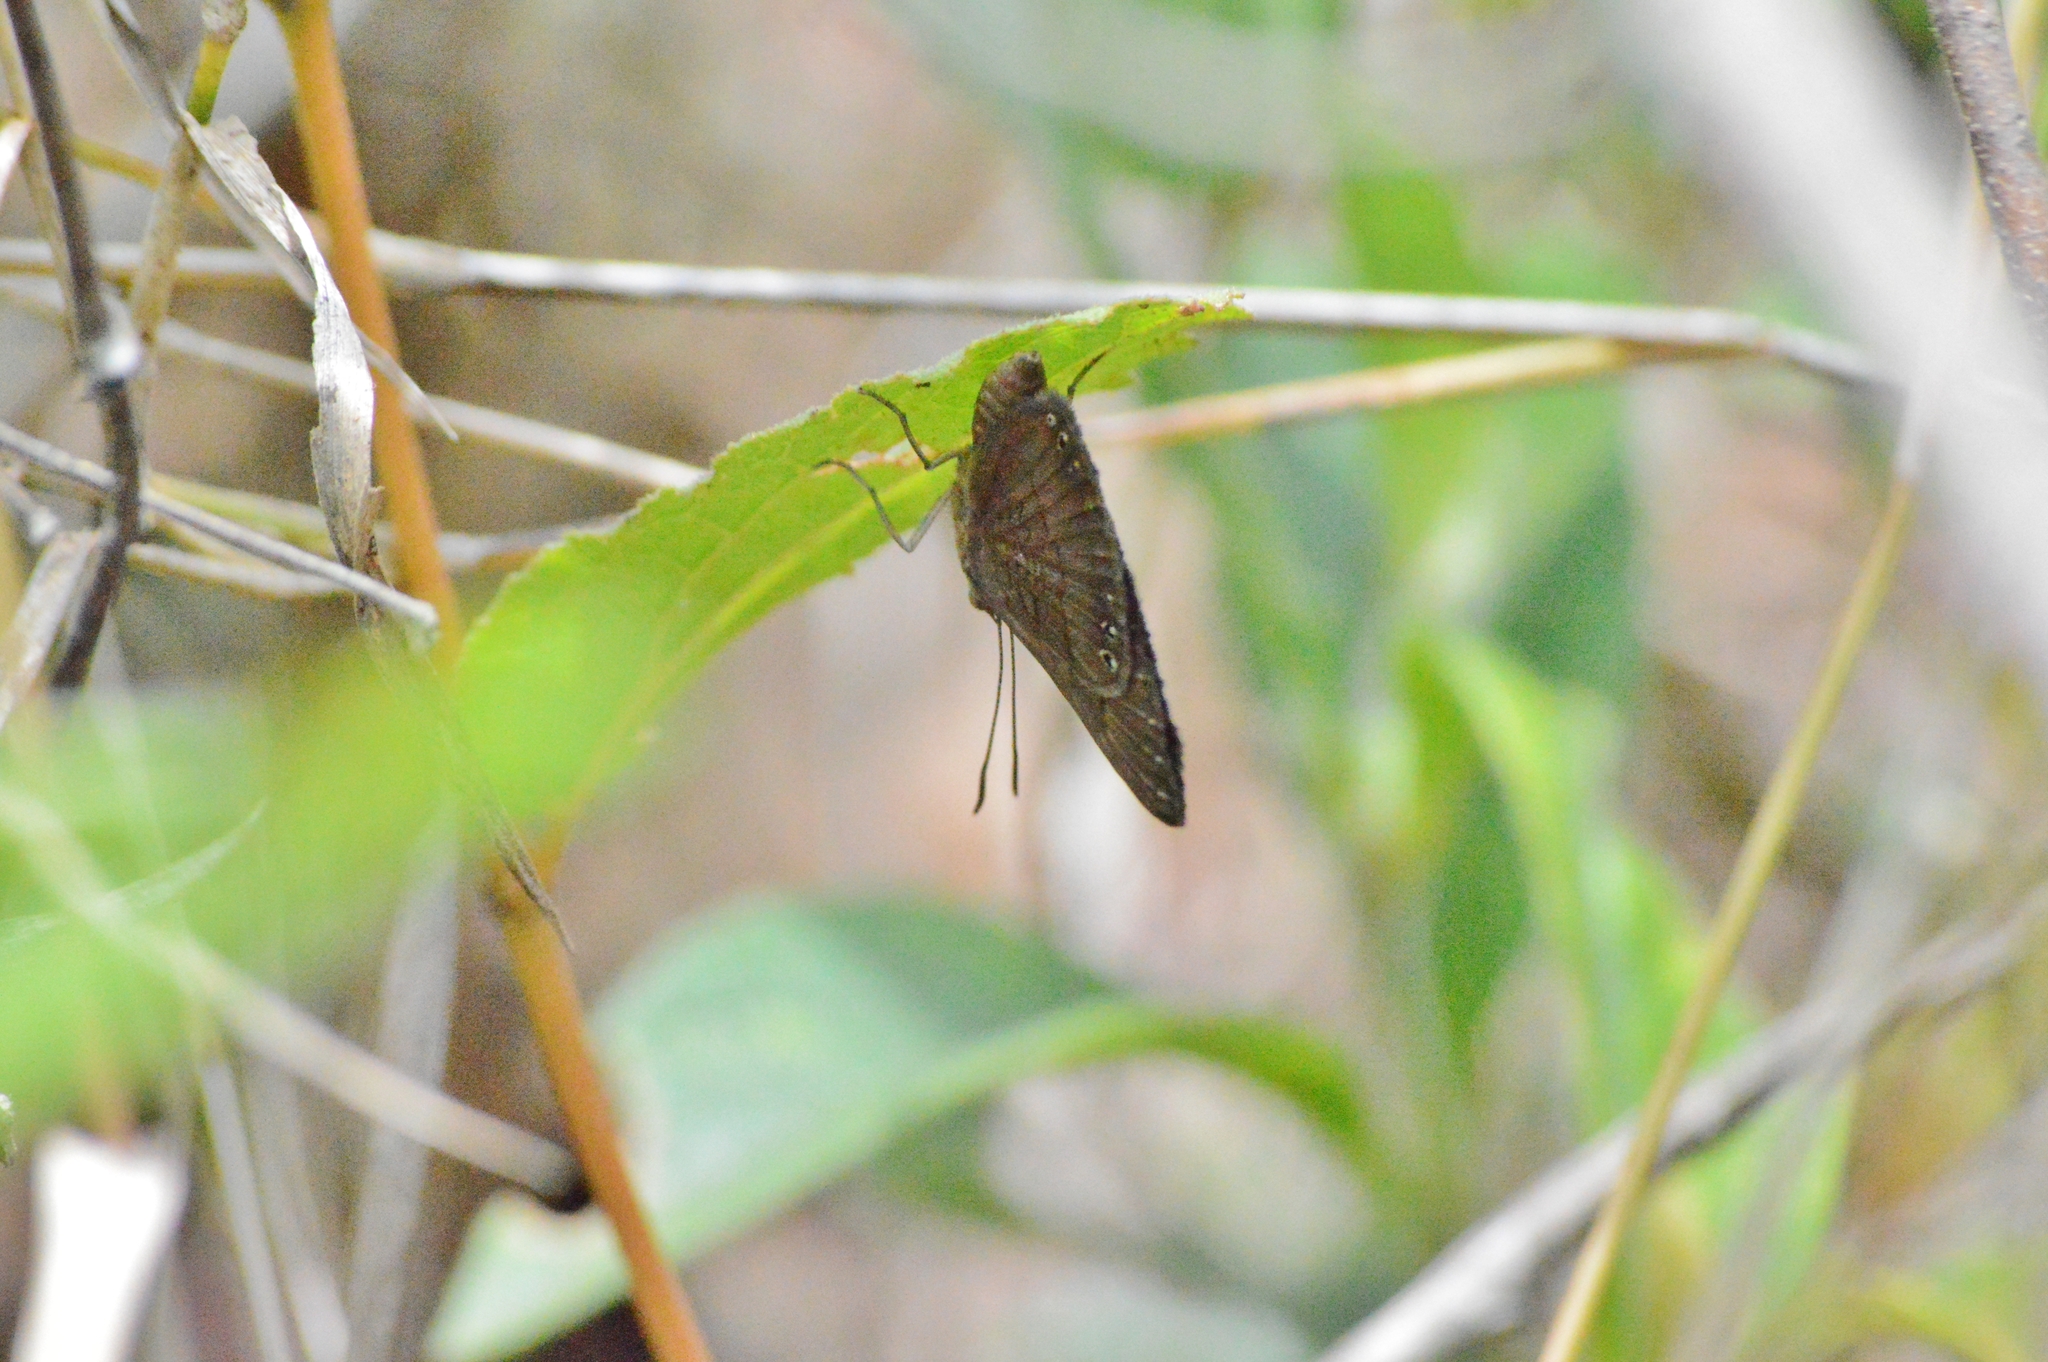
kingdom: Animalia
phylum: Arthropoda
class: Insecta
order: Lepidoptera
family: Lycaenidae
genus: Aricoris
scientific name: Aricoris emeryi
